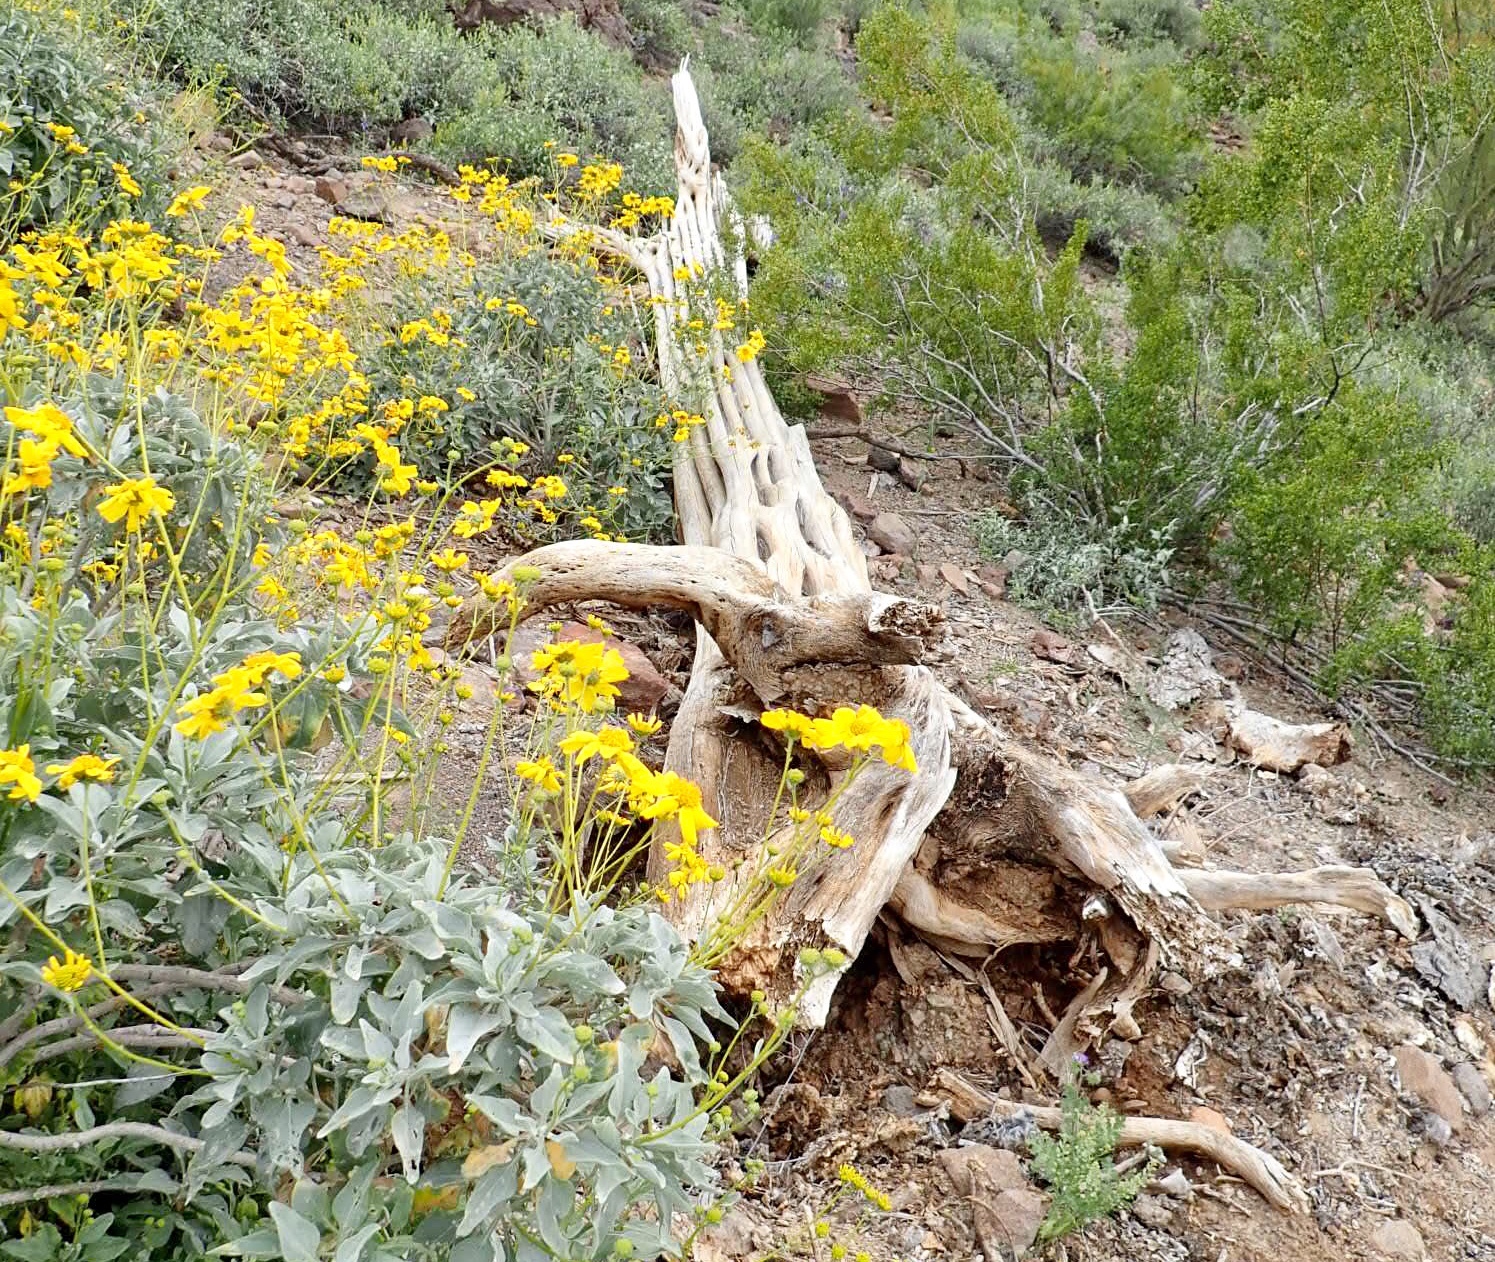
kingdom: Plantae
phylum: Tracheophyta
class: Magnoliopsida
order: Asterales
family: Asteraceae
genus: Encelia
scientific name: Encelia farinosa
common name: Brittlebush
